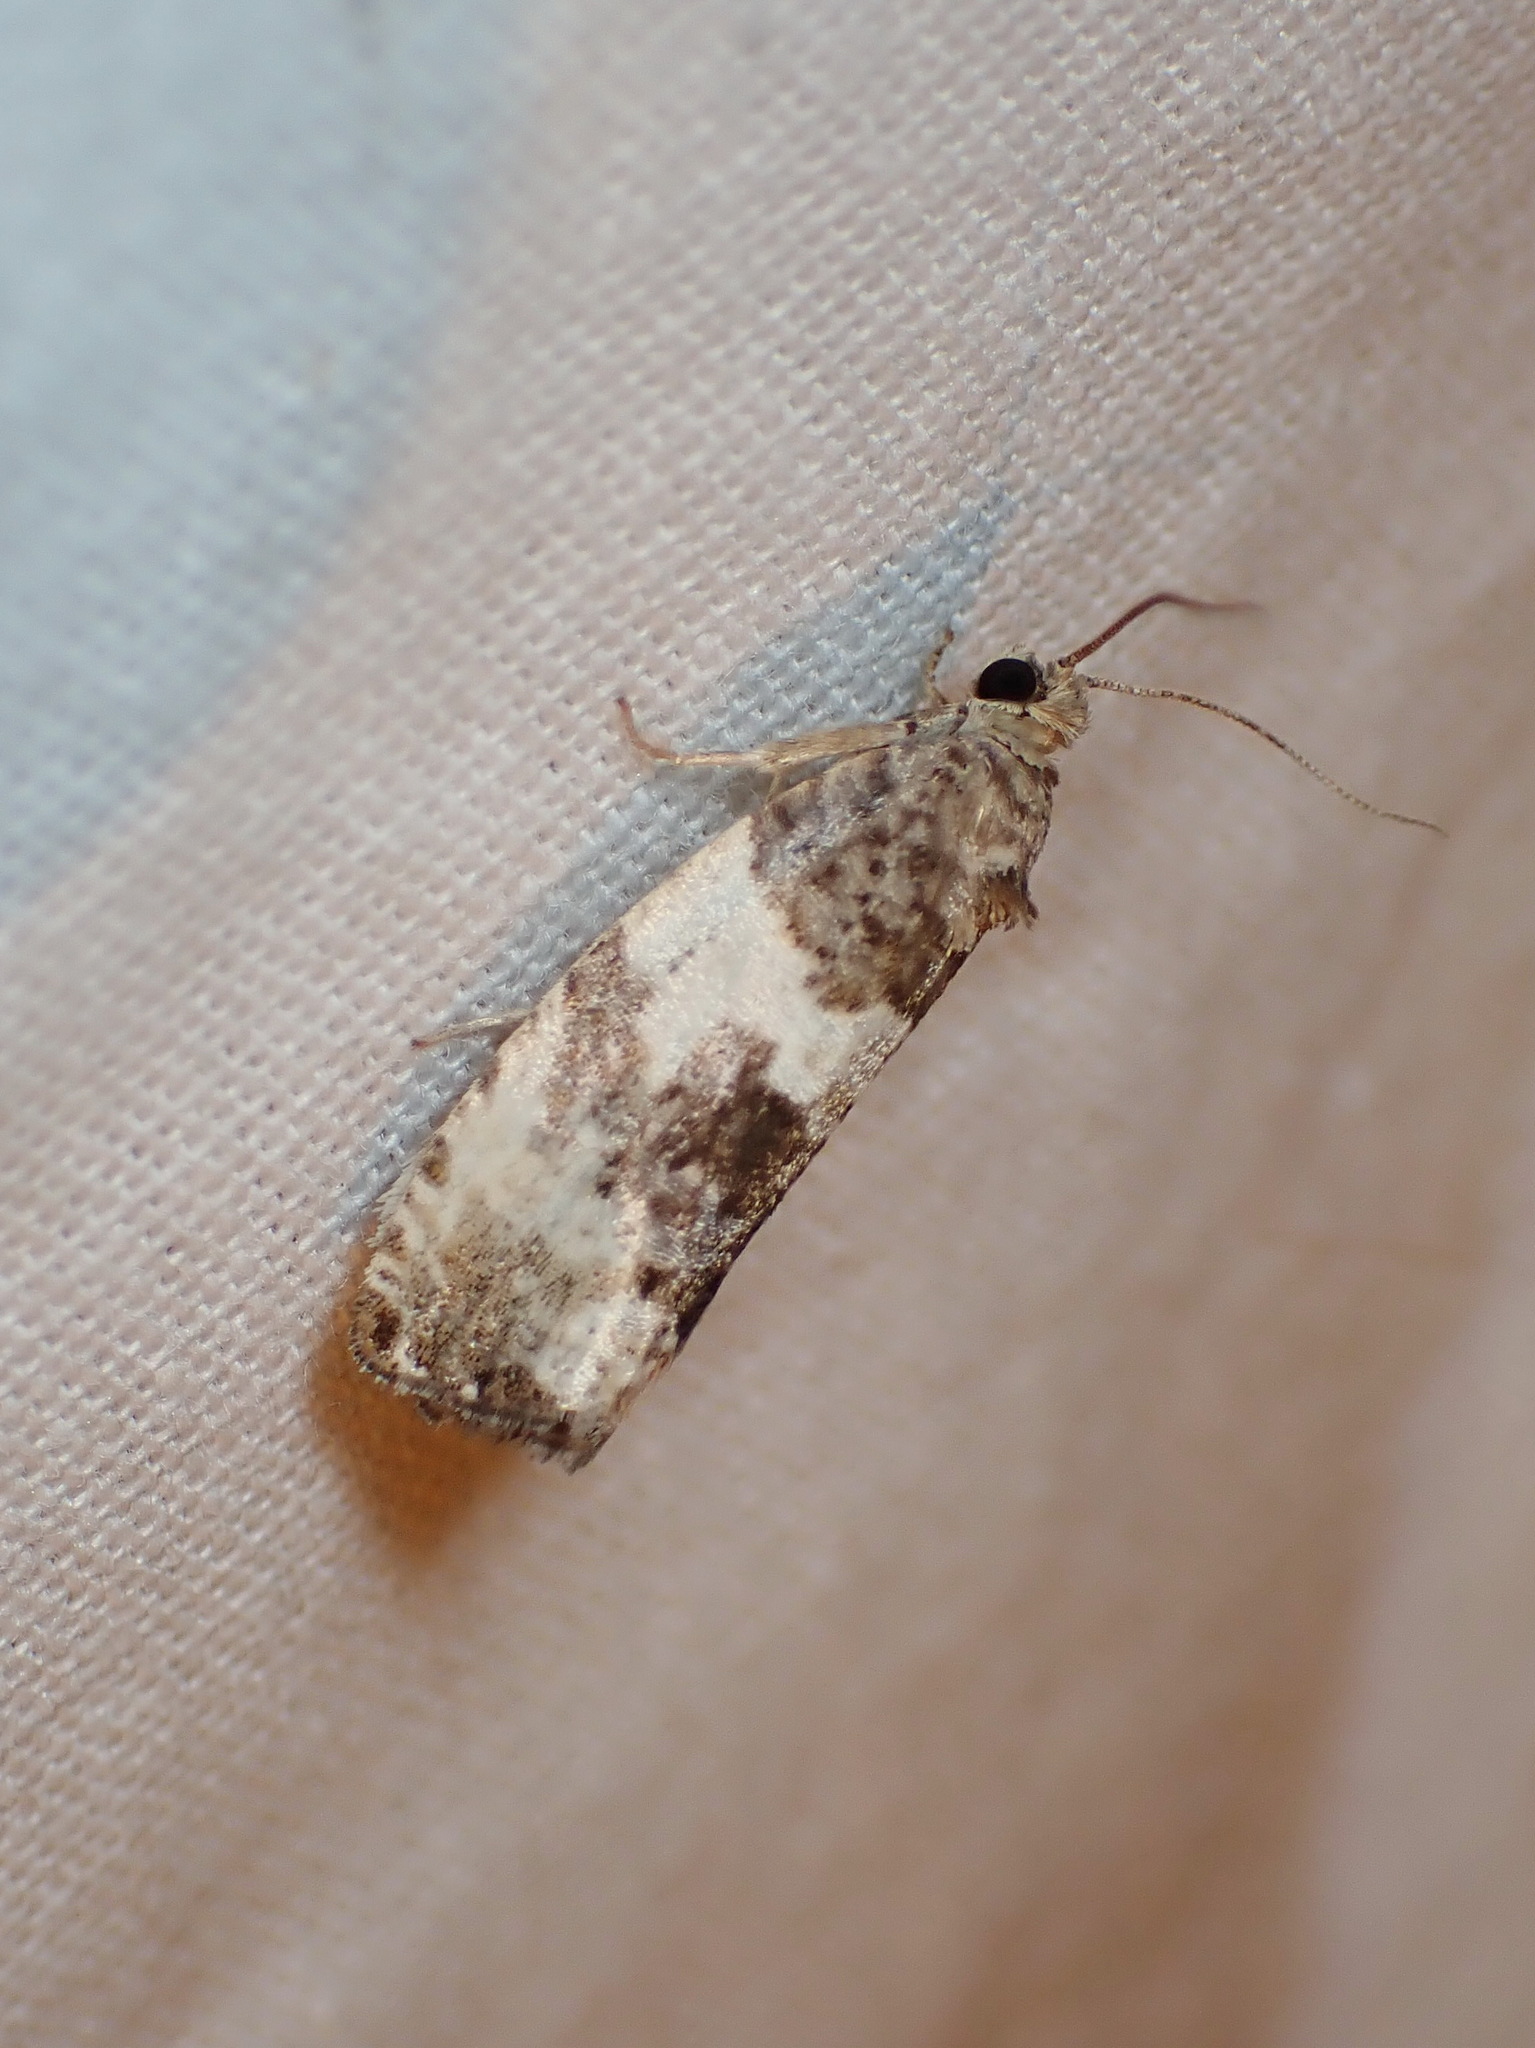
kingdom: Animalia
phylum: Arthropoda
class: Insecta
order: Lepidoptera
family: Tortricidae
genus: Pseudosciaphila
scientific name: Pseudosciaphila duplex
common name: Poplar leafroller moth
